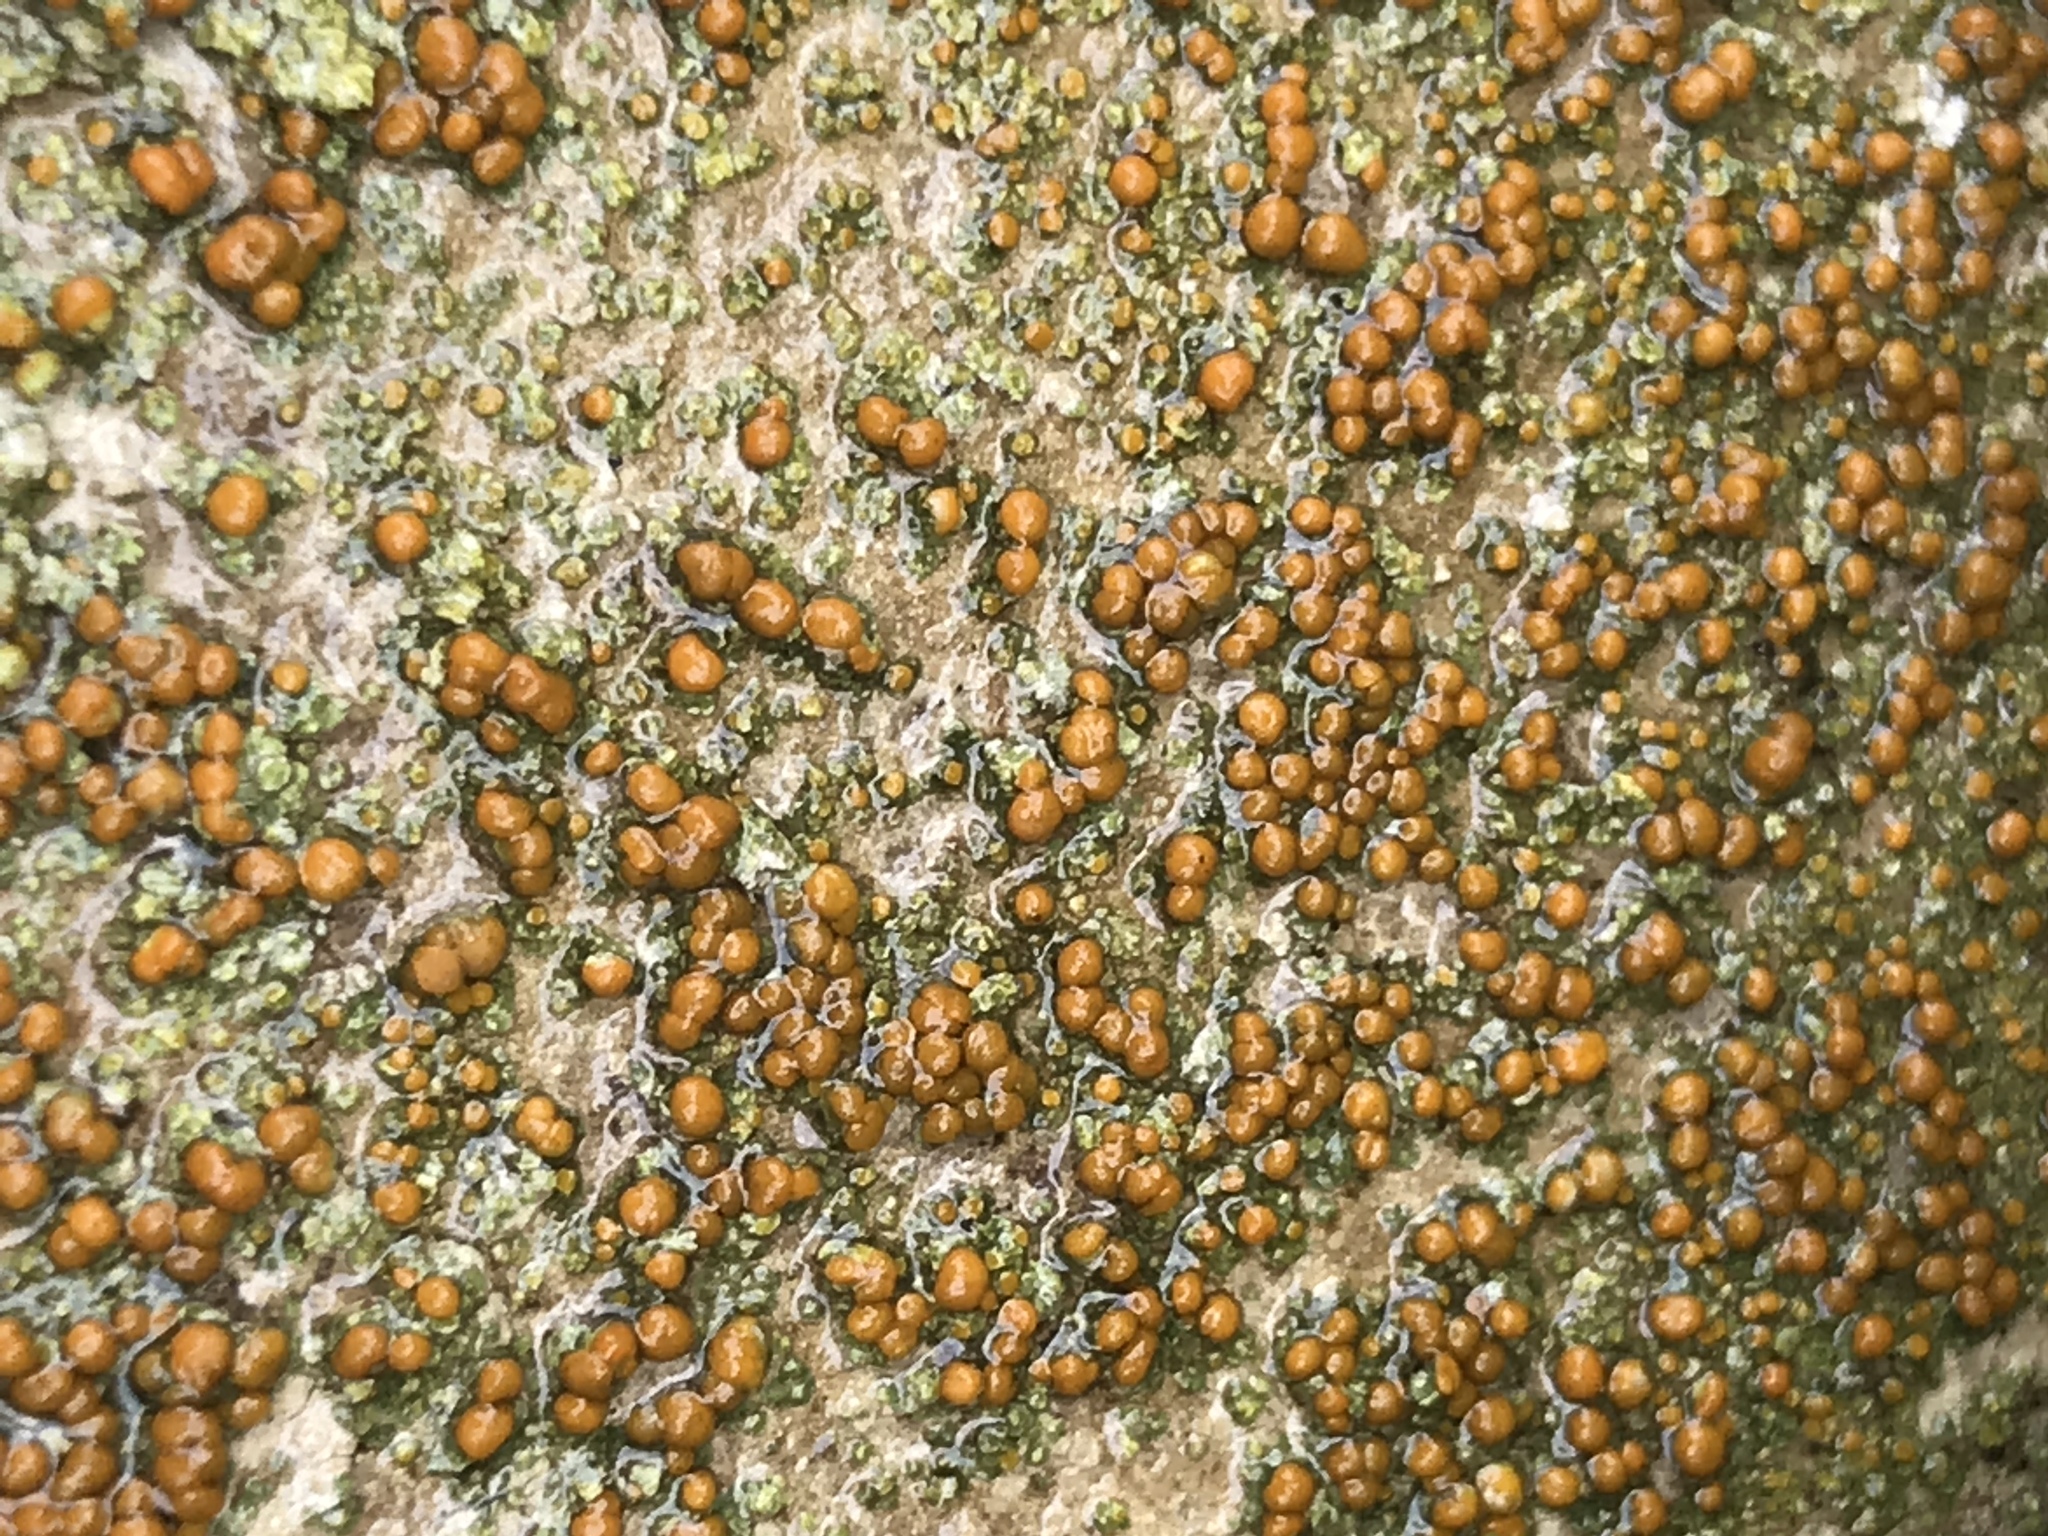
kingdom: Fungi
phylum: Ascomycota
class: Lecanoromycetes
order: Teloschistales
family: Teloschistaceae
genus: Gyalolechia
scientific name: Gyalolechia flavovirescens
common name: Sulphur firedot
